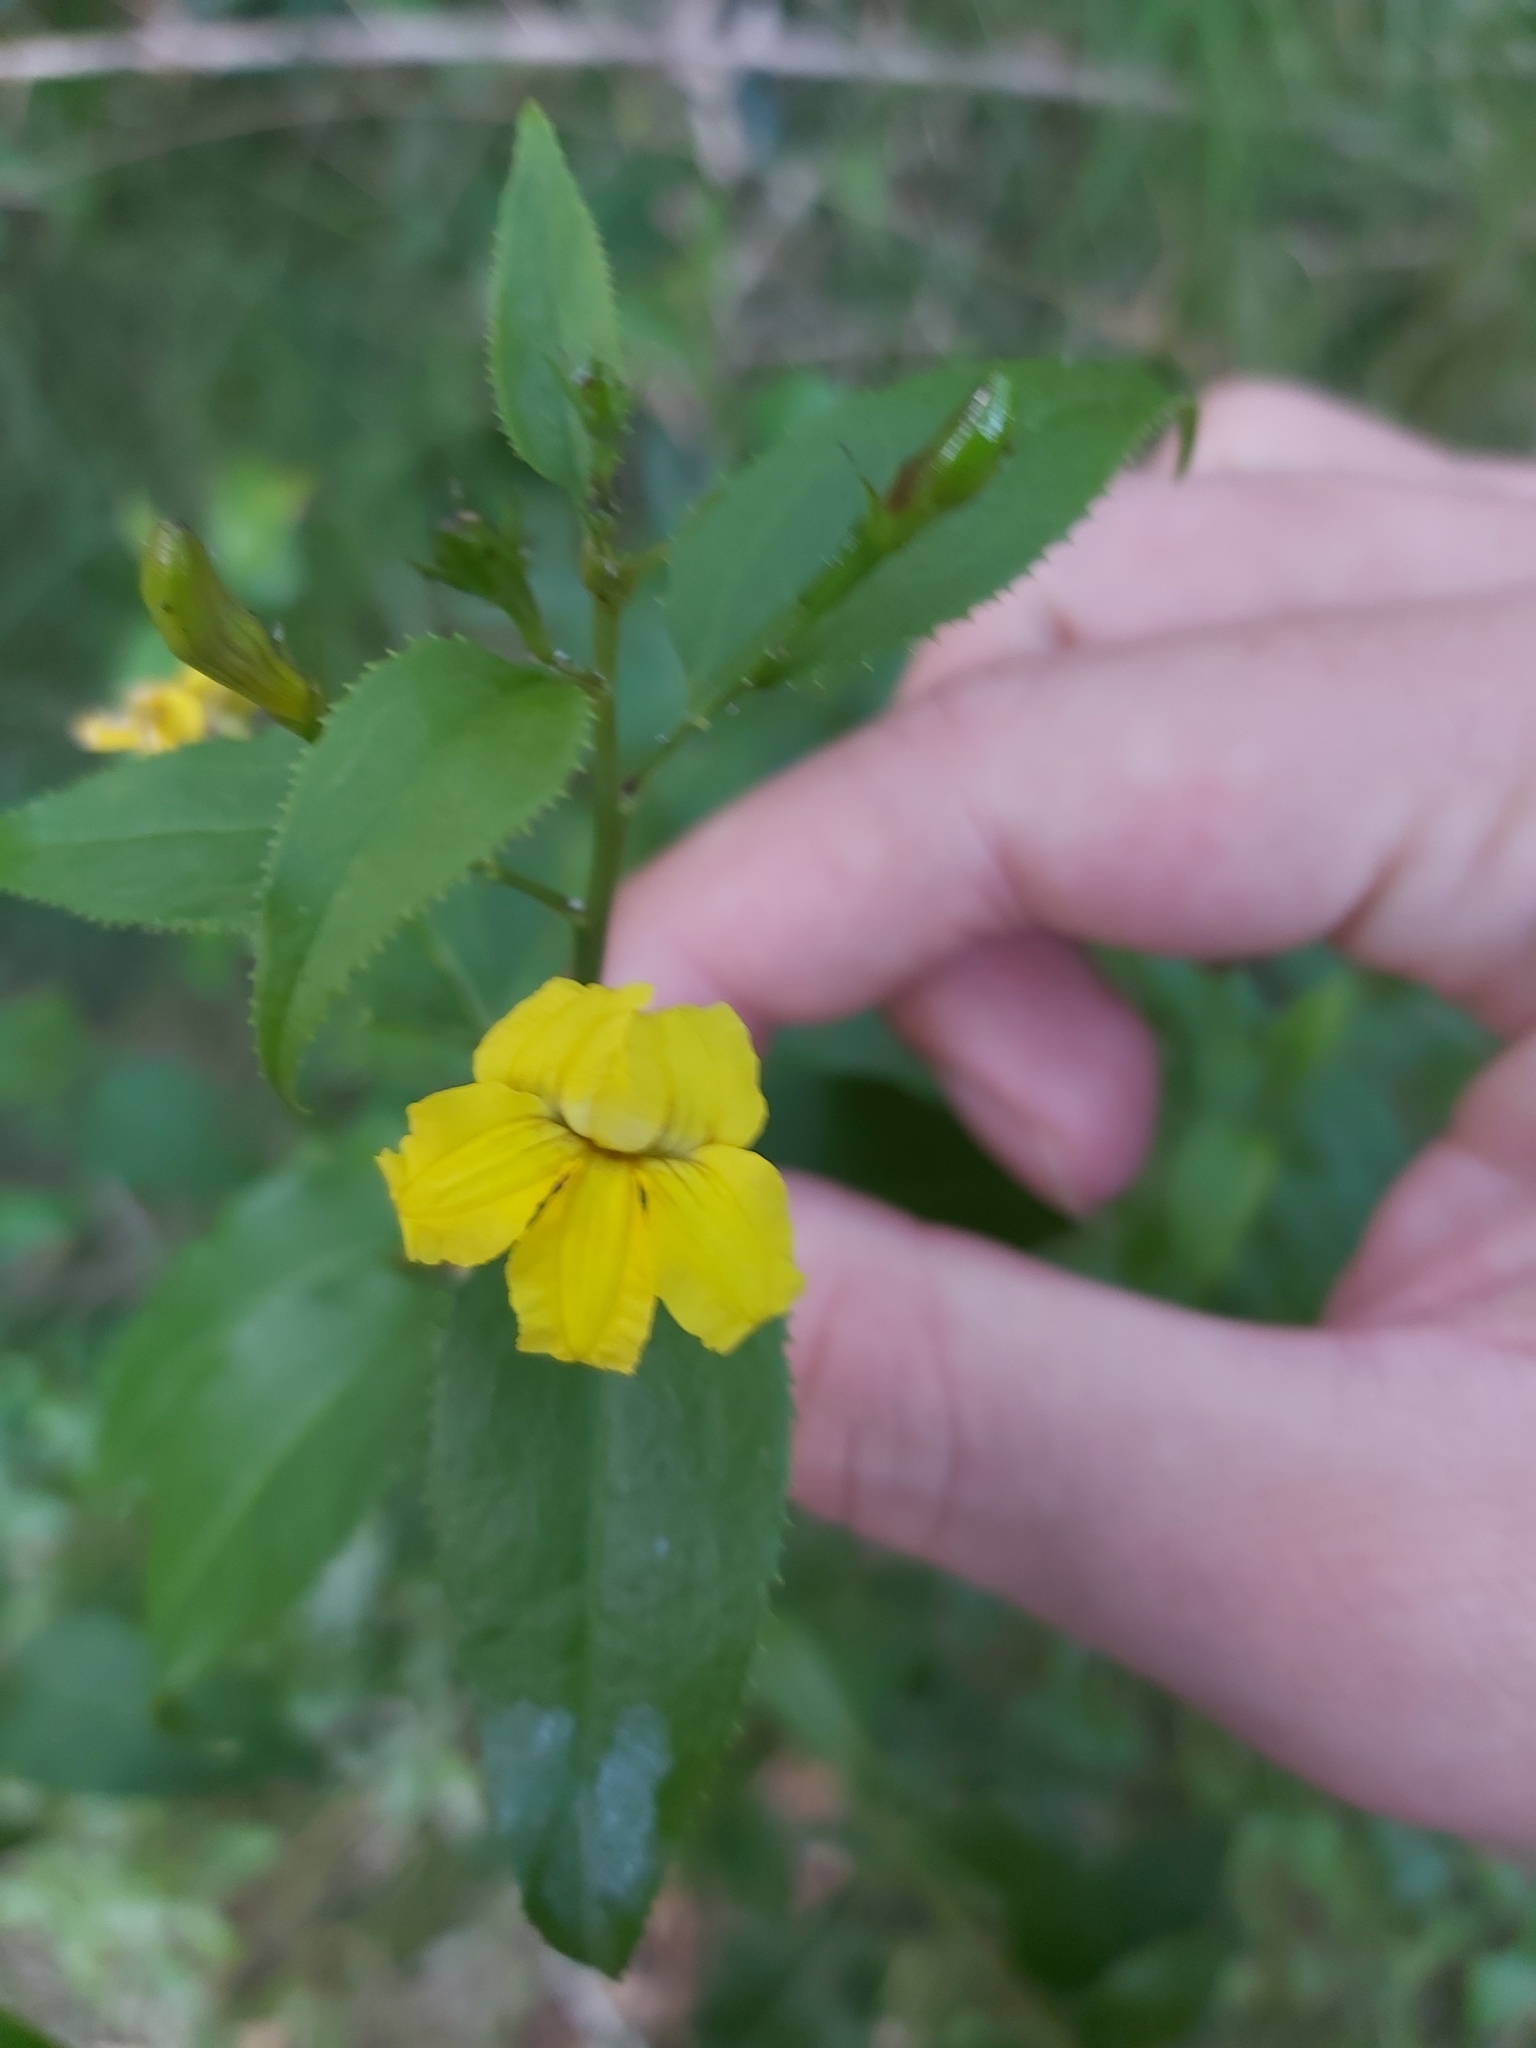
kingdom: Plantae
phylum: Tracheophyta
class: Magnoliopsida
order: Asterales
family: Goodeniaceae
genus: Goodenia
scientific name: Goodenia ovata
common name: Hop goodenia
